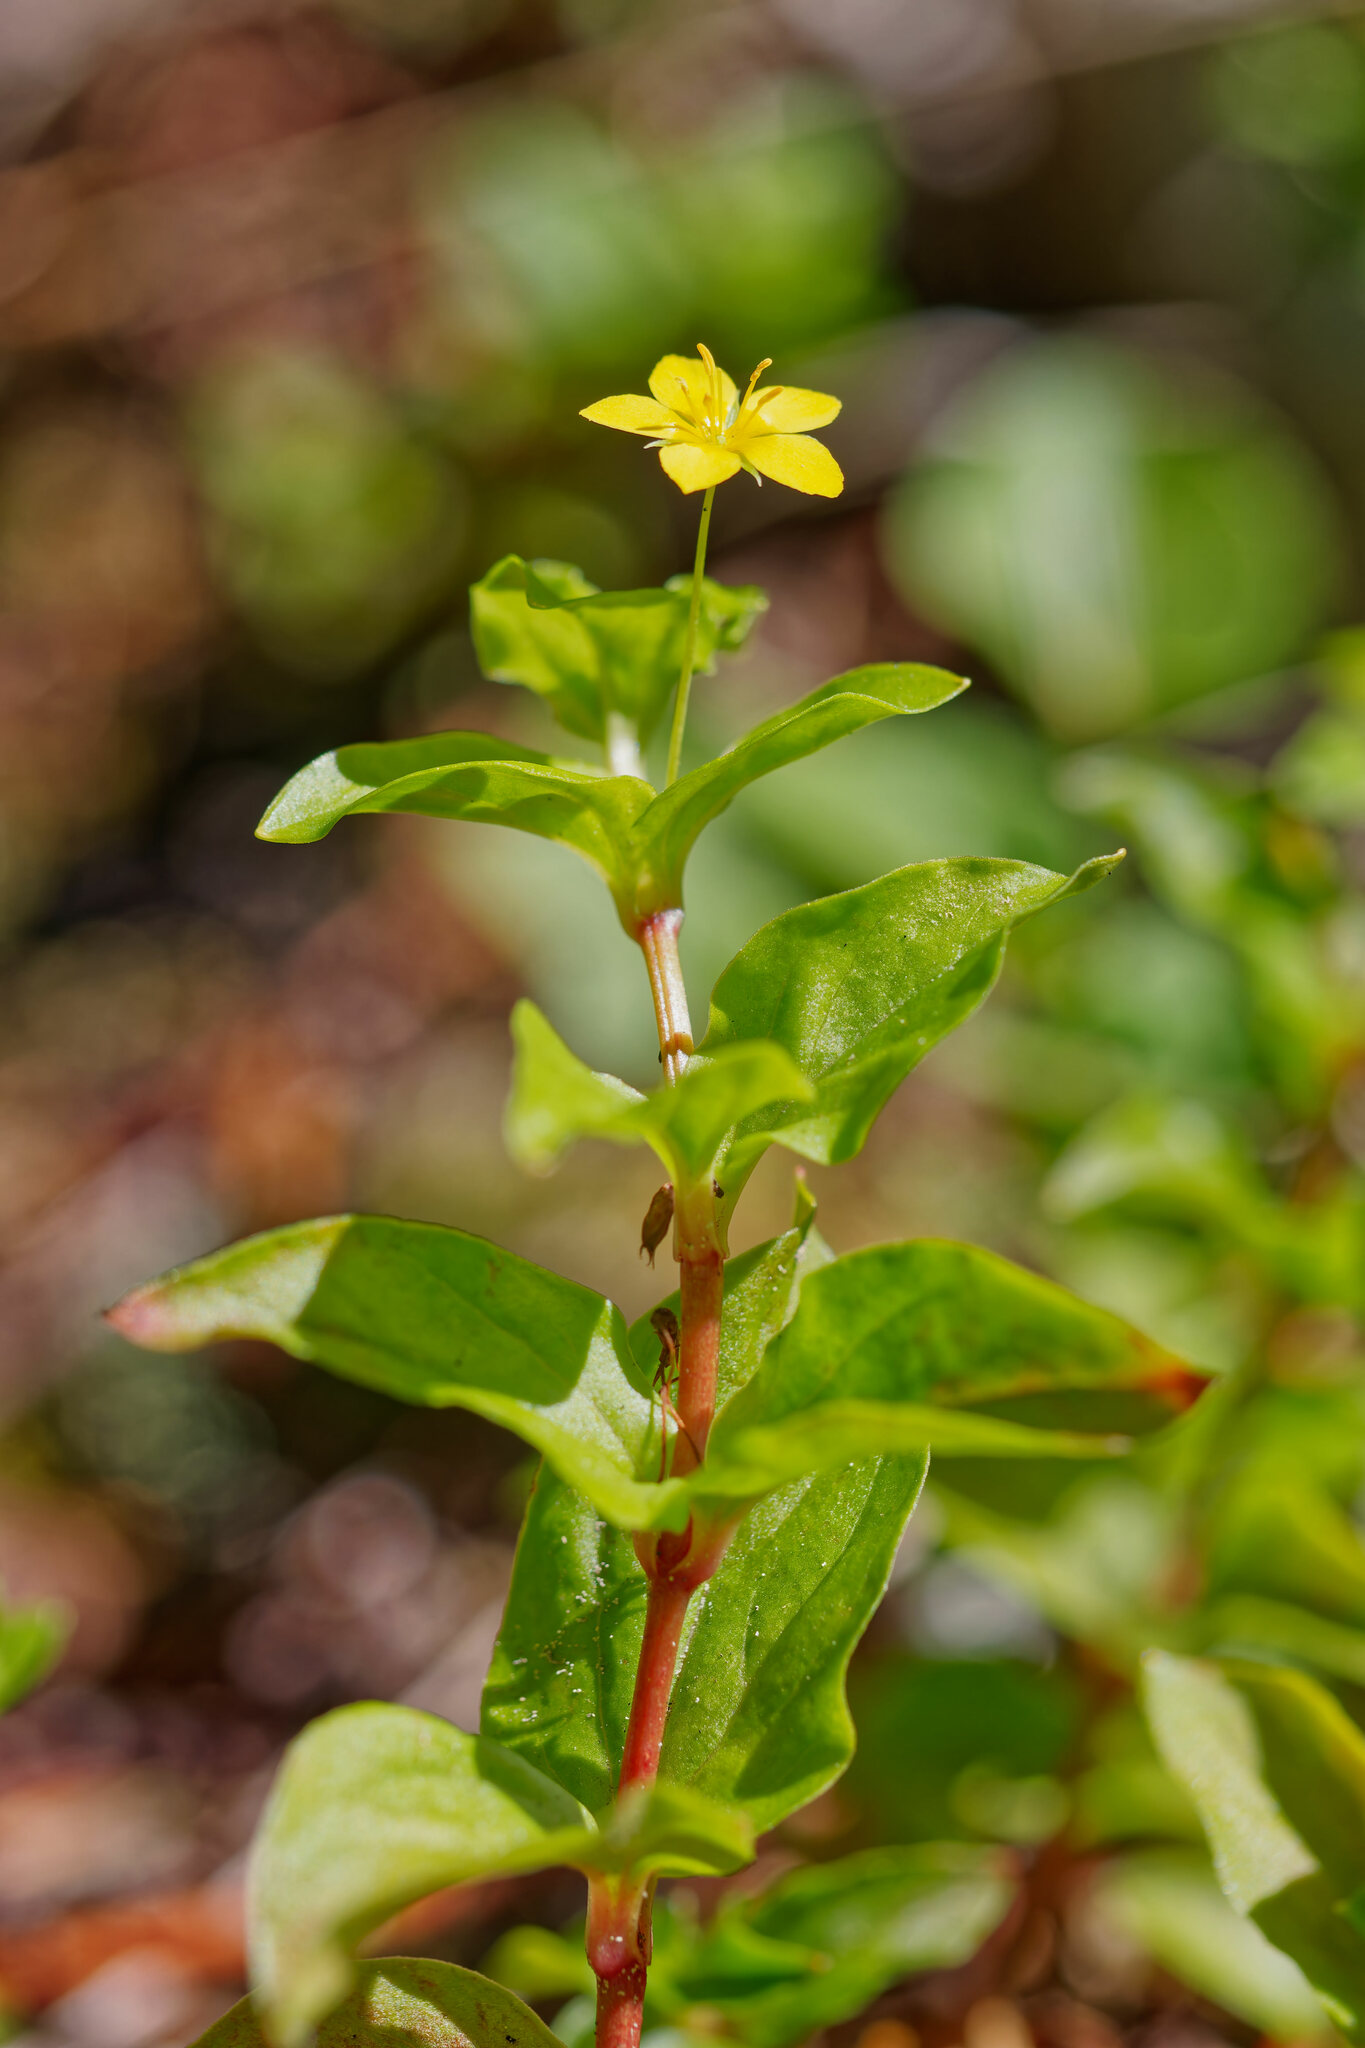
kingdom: Plantae
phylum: Tracheophyta
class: Magnoliopsida
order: Ericales
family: Primulaceae
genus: Lysimachia
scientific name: Lysimachia nemorum
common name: Yellow pimpernel
